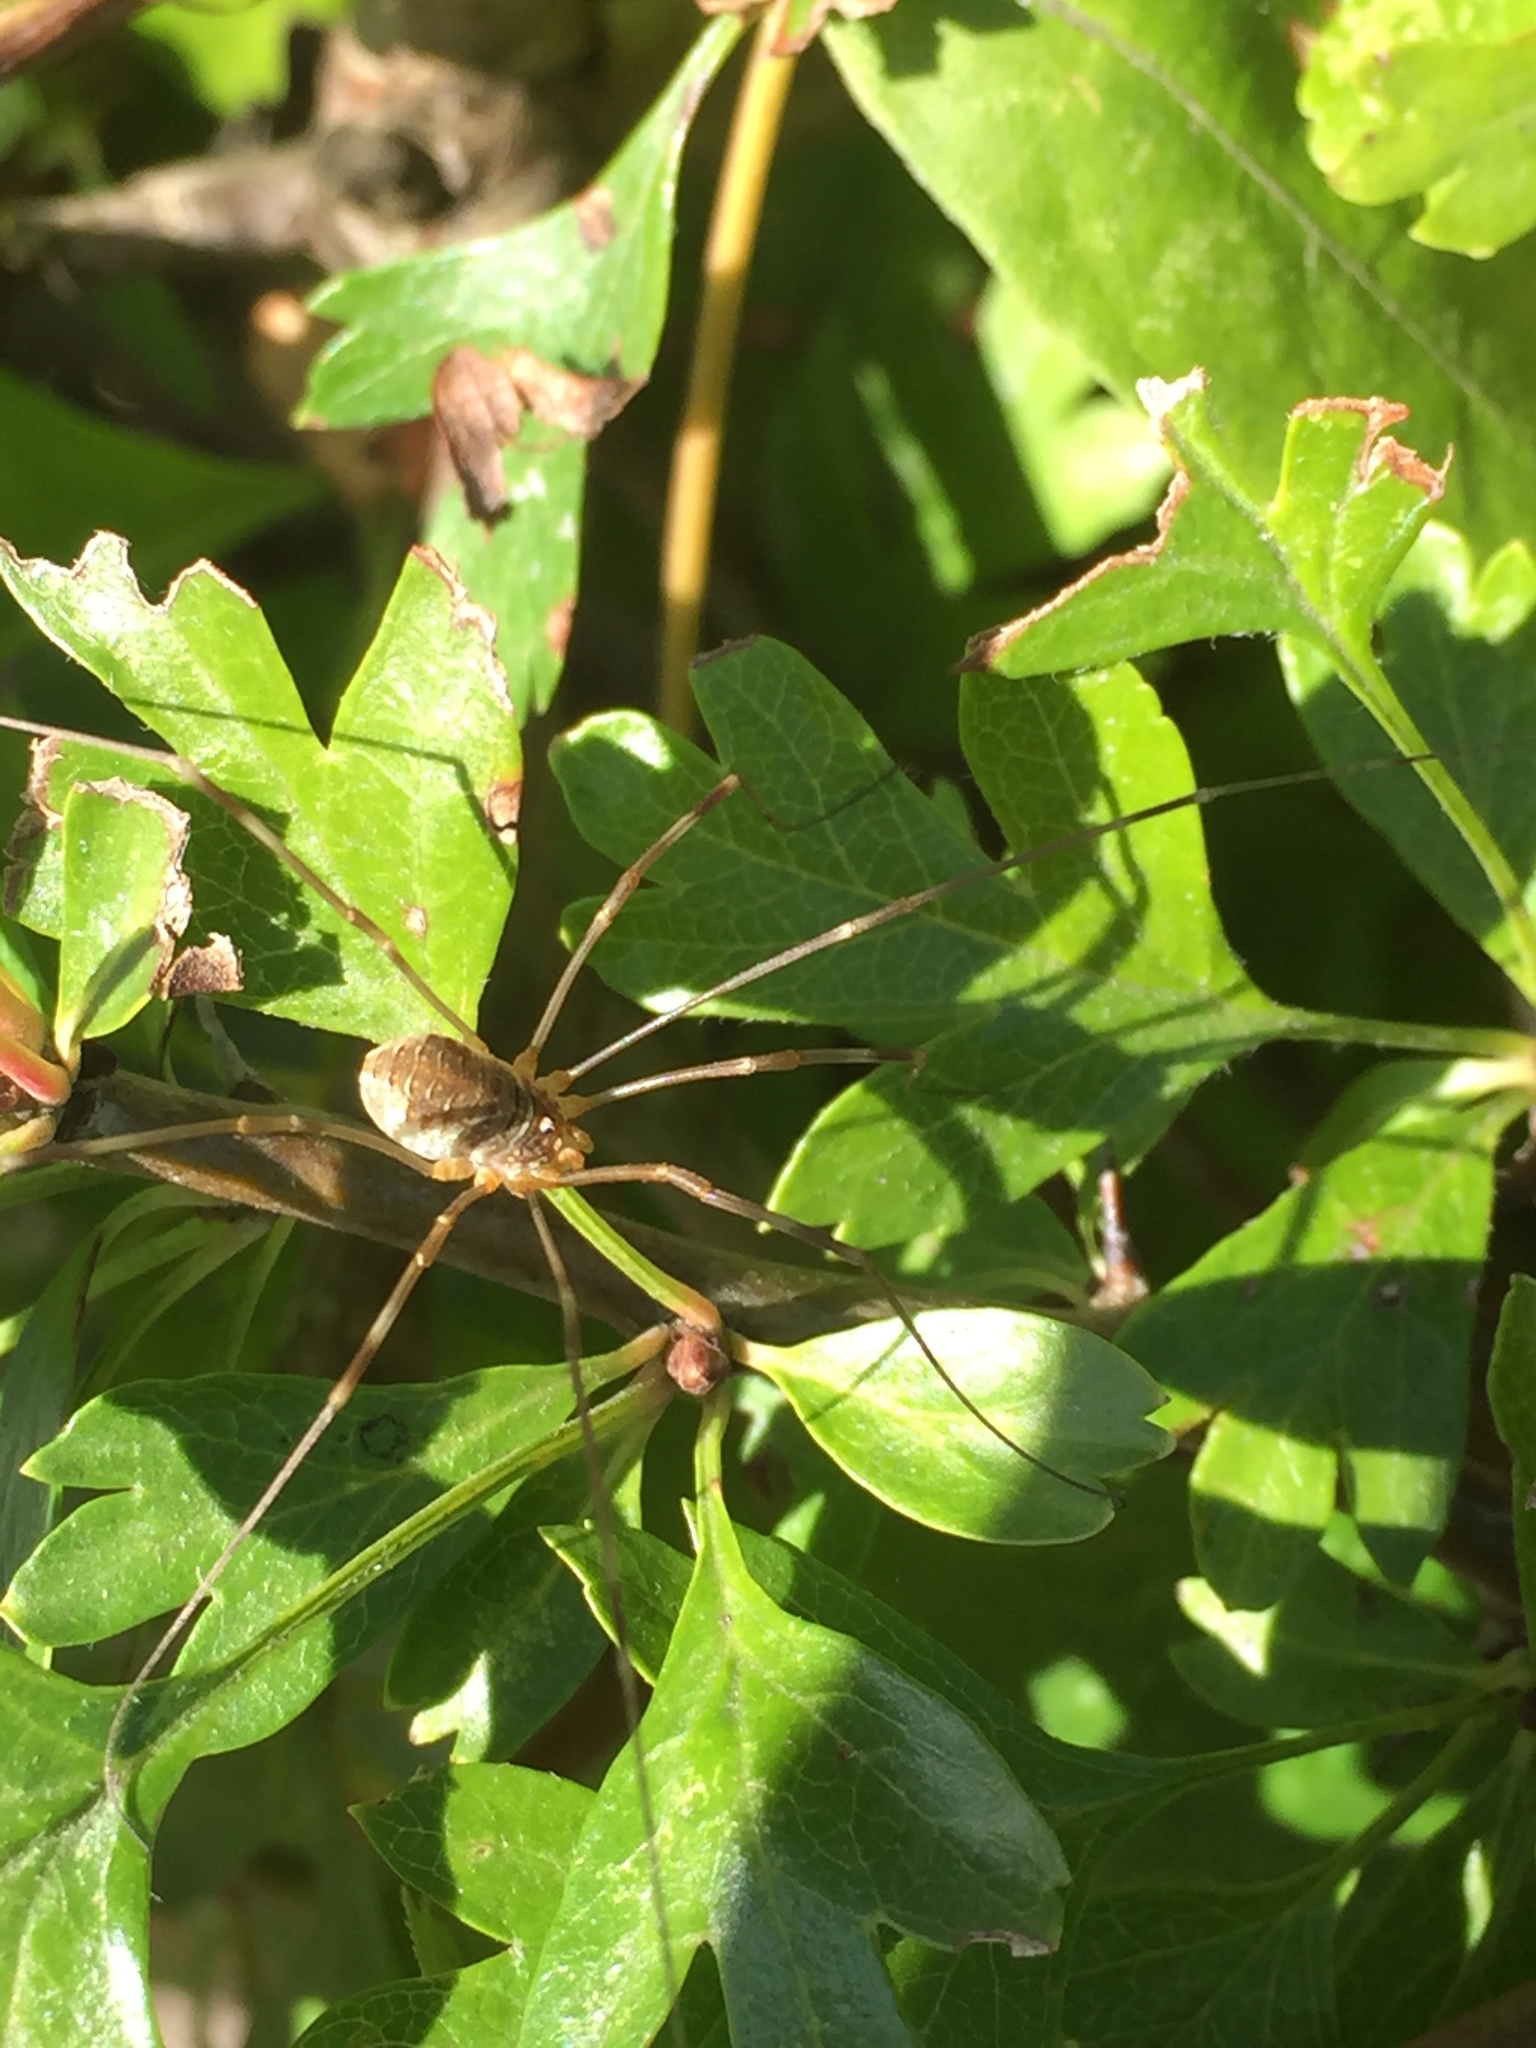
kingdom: Animalia
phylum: Arthropoda
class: Arachnida
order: Opiliones
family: Phalangiidae
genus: Opilio
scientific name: Opilio canestrinii
